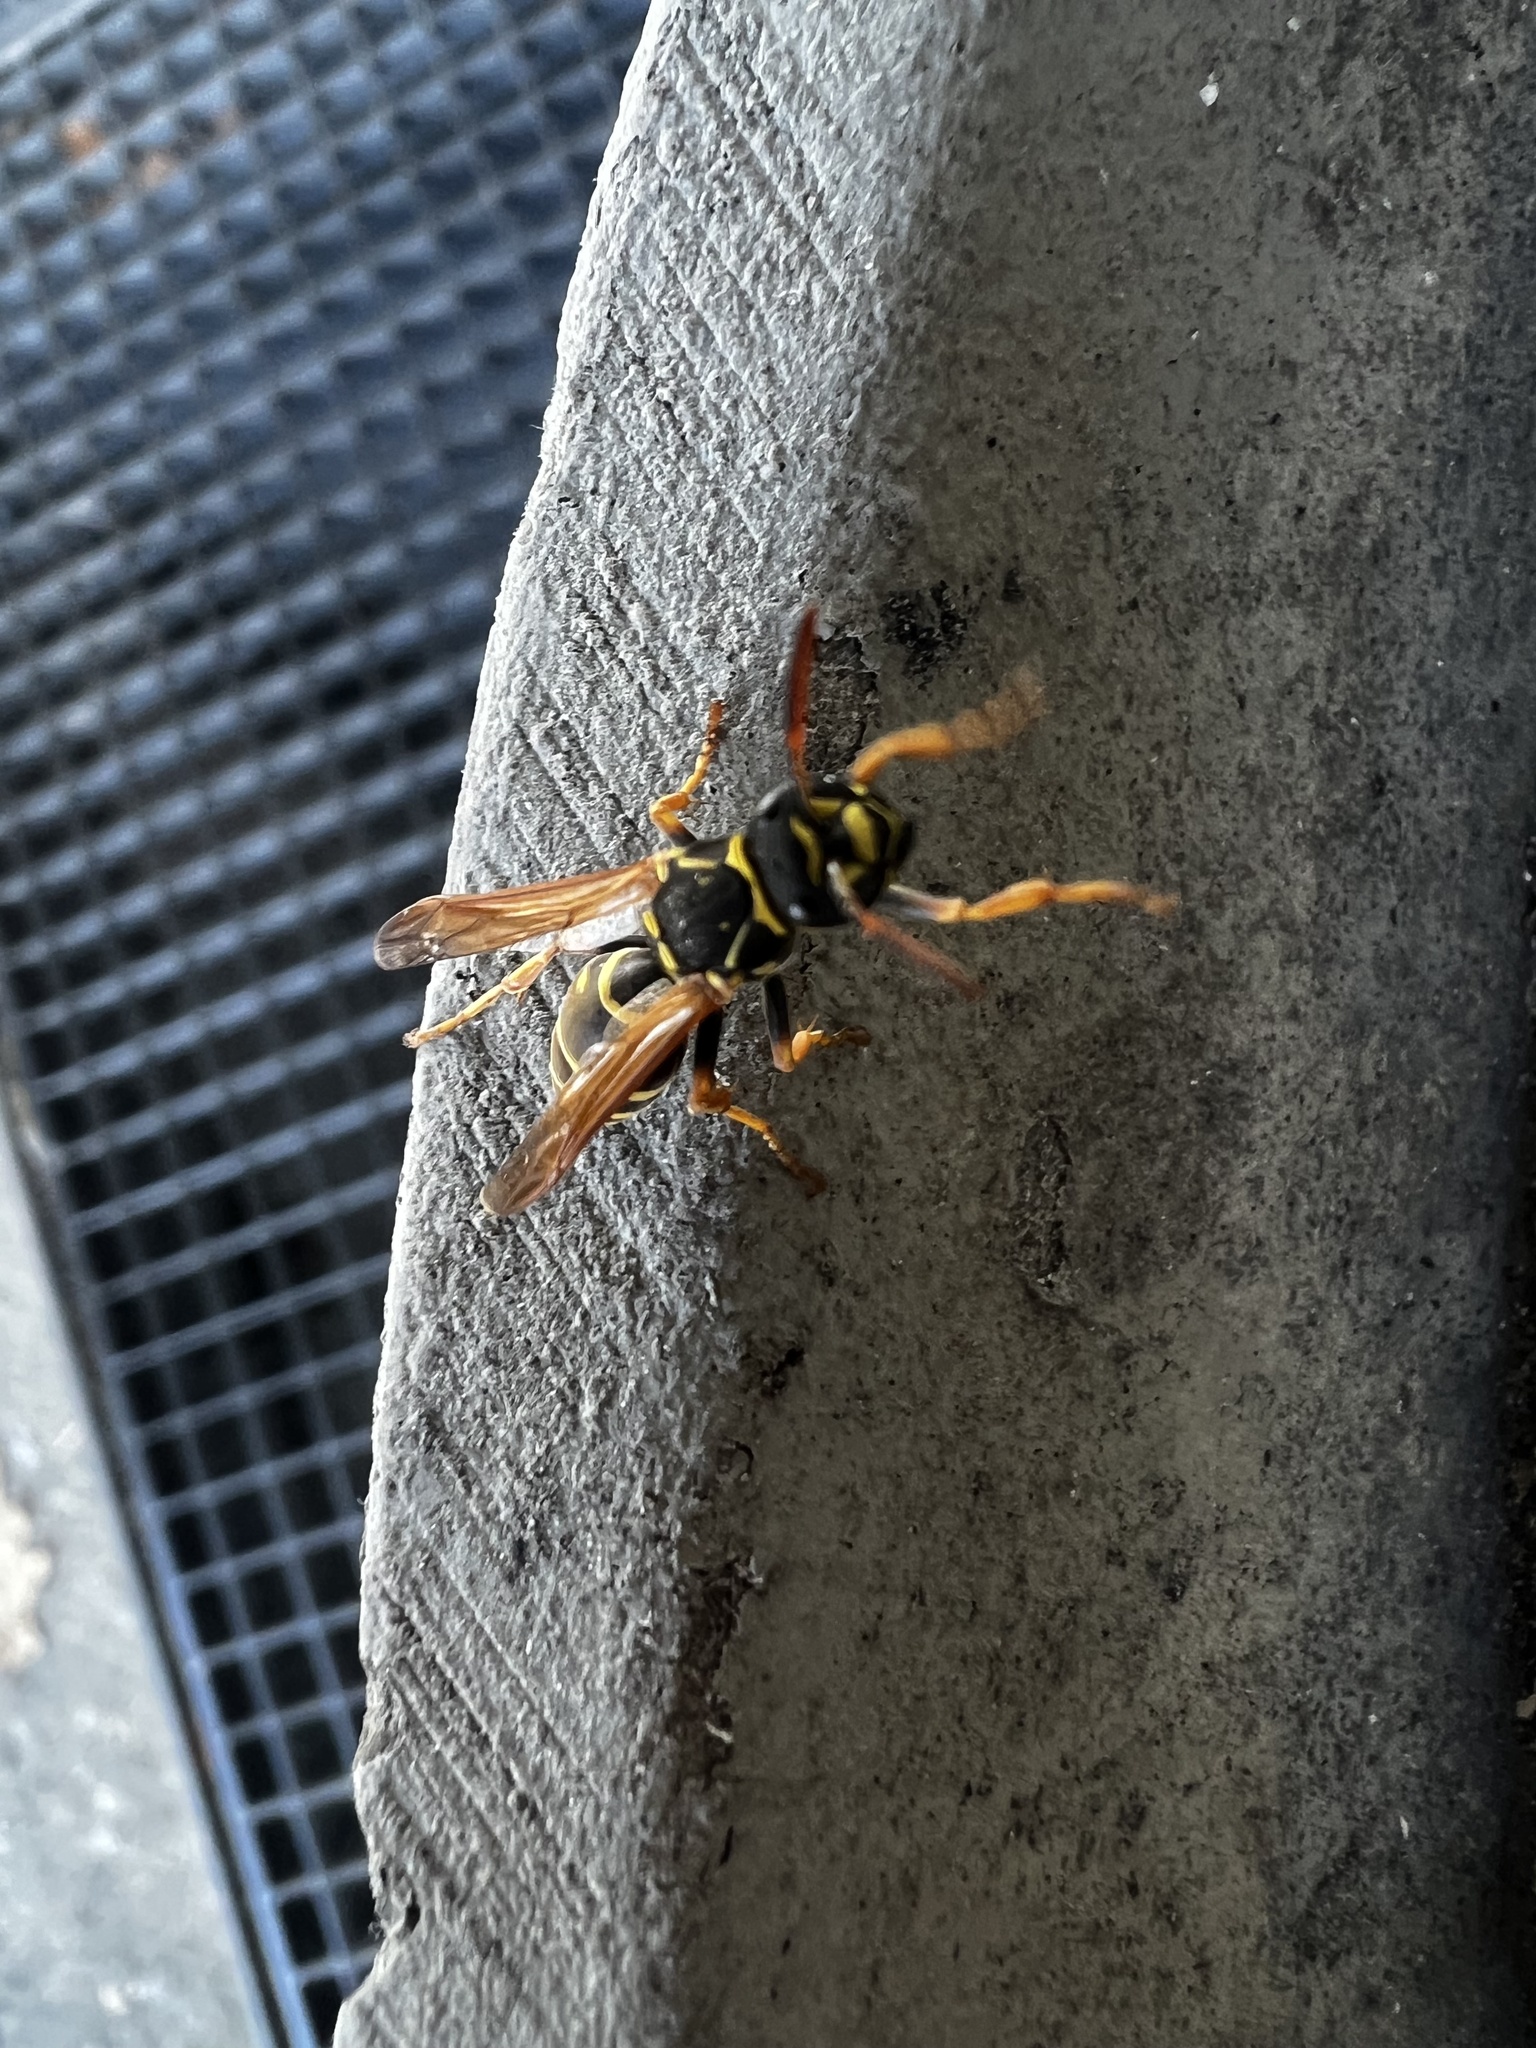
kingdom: Animalia
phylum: Arthropoda
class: Insecta
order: Hymenoptera
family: Eumenidae
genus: Polistes
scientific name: Polistes nimpha
